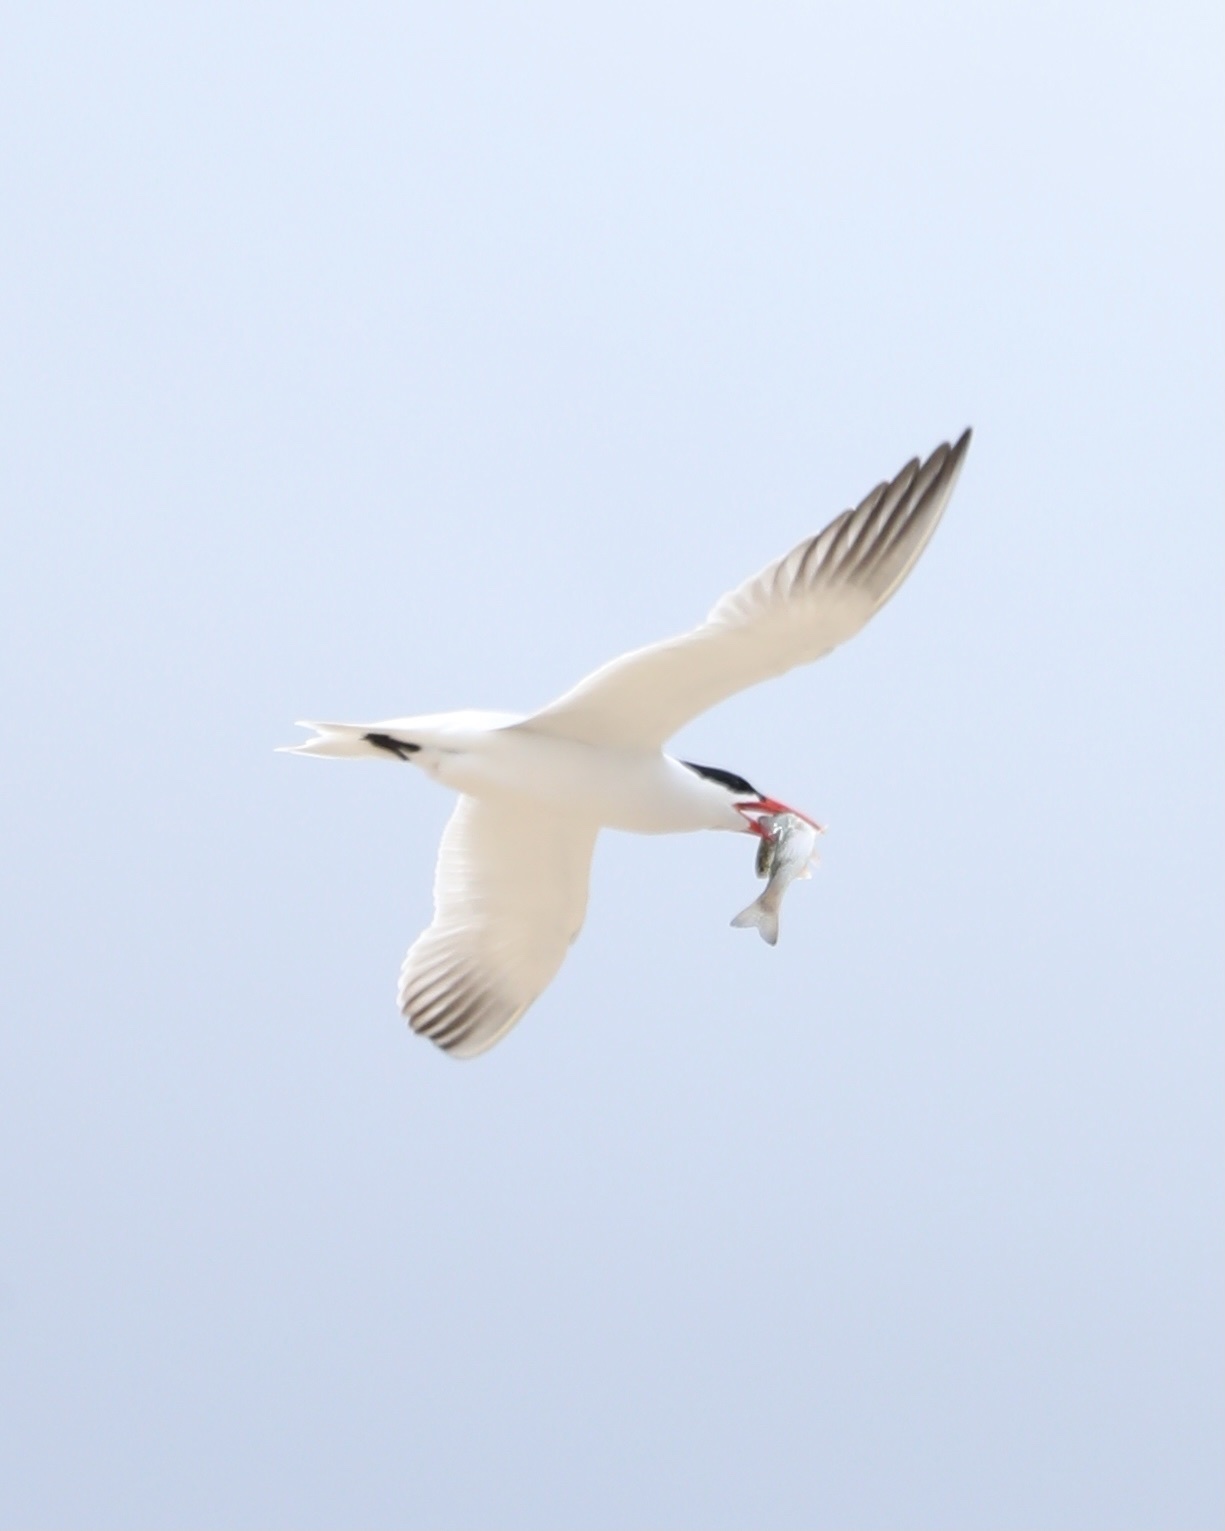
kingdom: Animalia
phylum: Chordata
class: Aves
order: Charadriiformes
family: Laridae
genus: Hydroprogne
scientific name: Hydroprogne caspia
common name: Caspian tern
